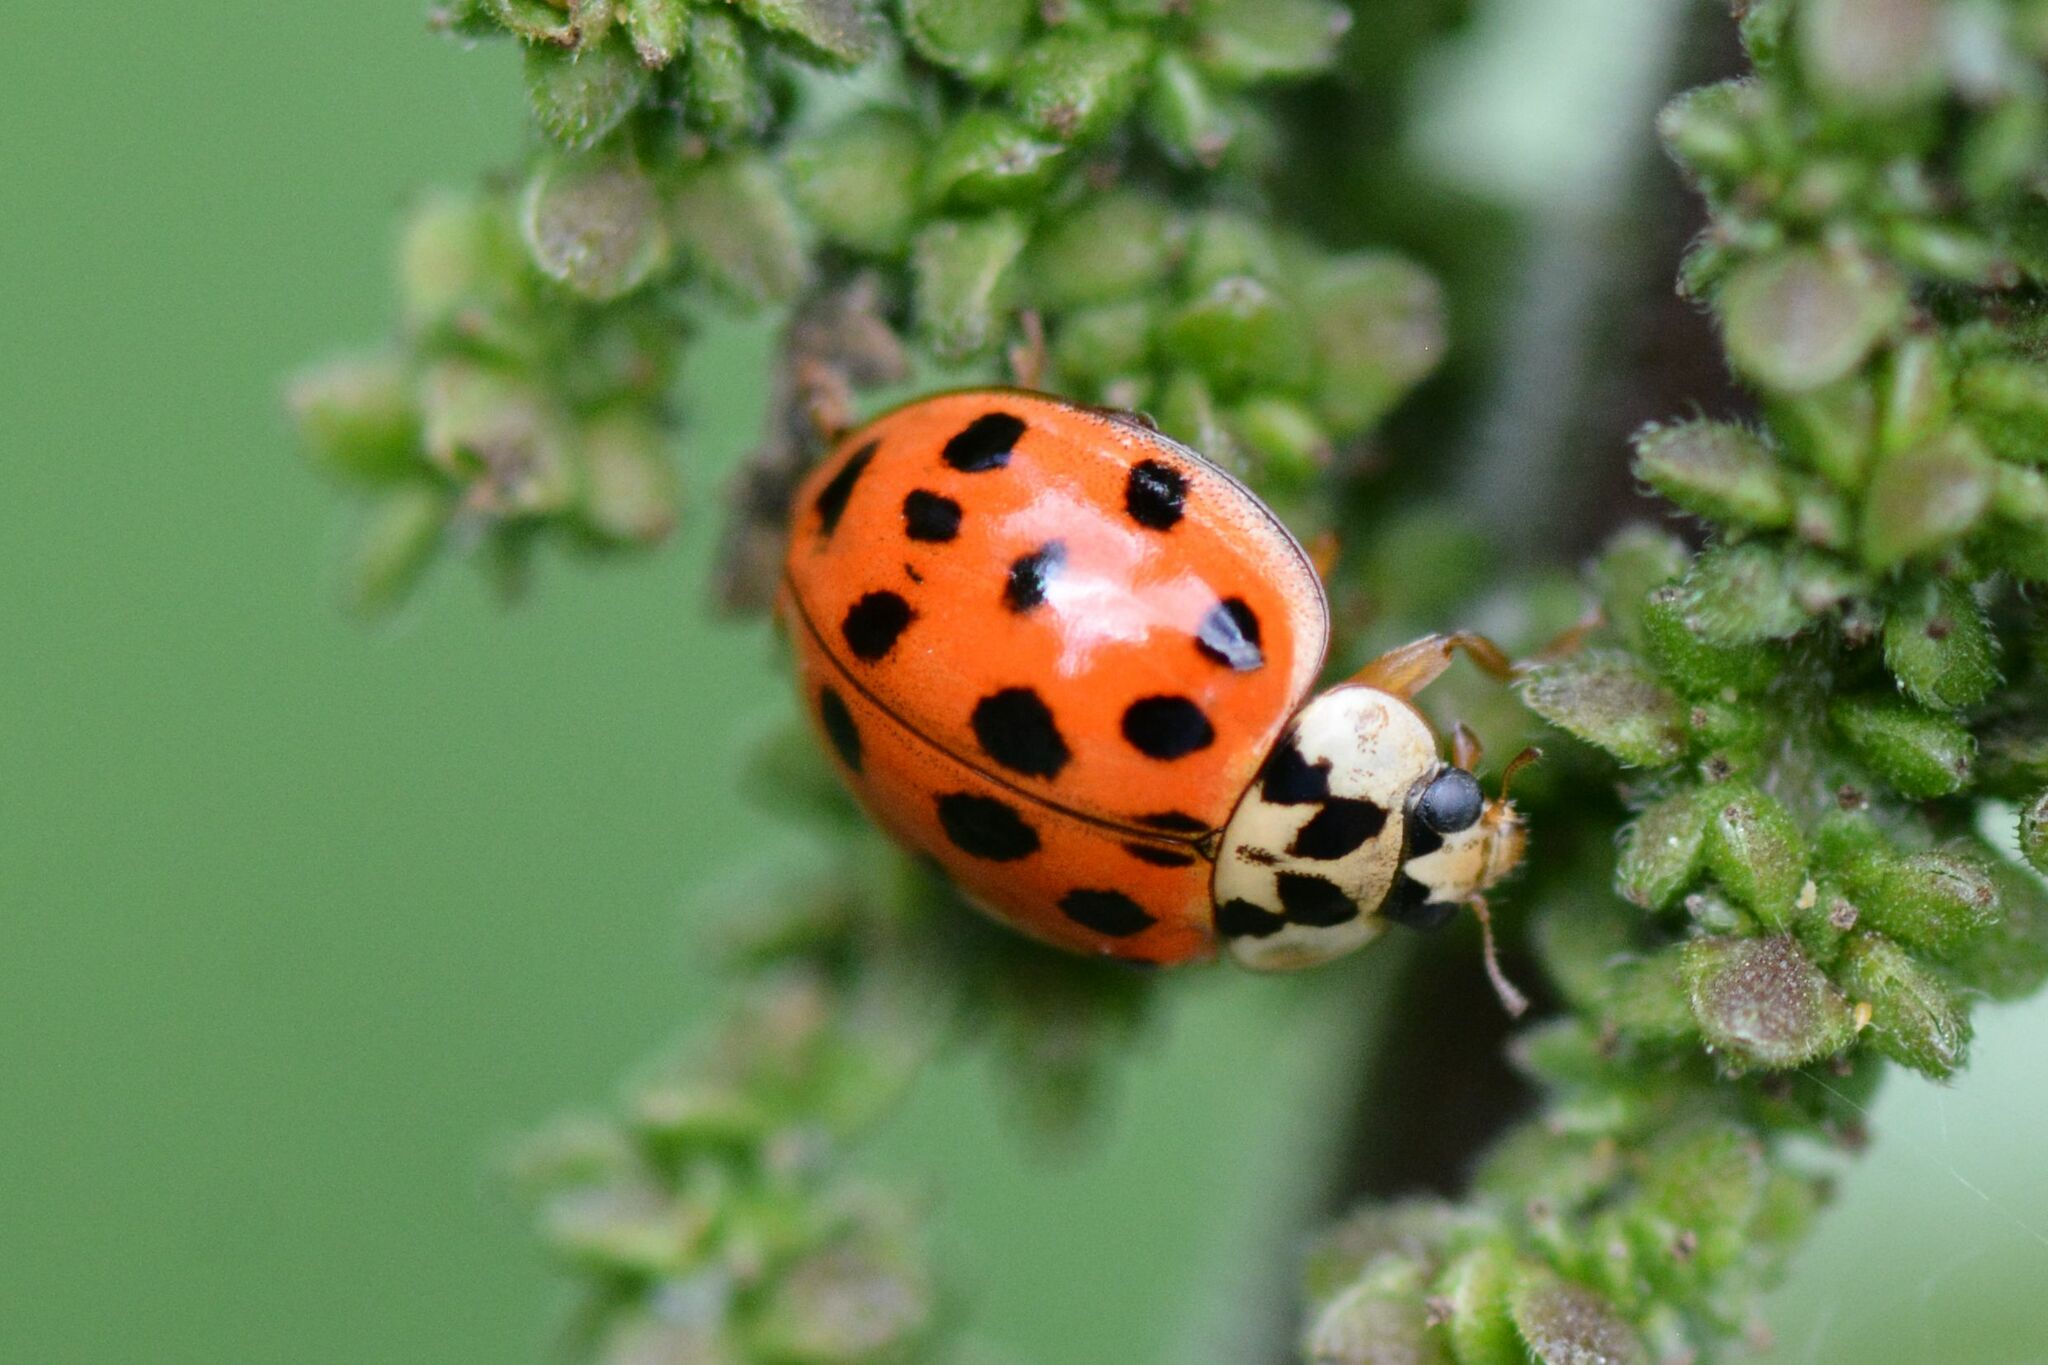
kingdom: Animalia
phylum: Arthropoda
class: Insecta
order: Coleoptera
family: Coccinellidae
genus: Harmonia
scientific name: Harmonia axyridis
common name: Harlequin ladybird
